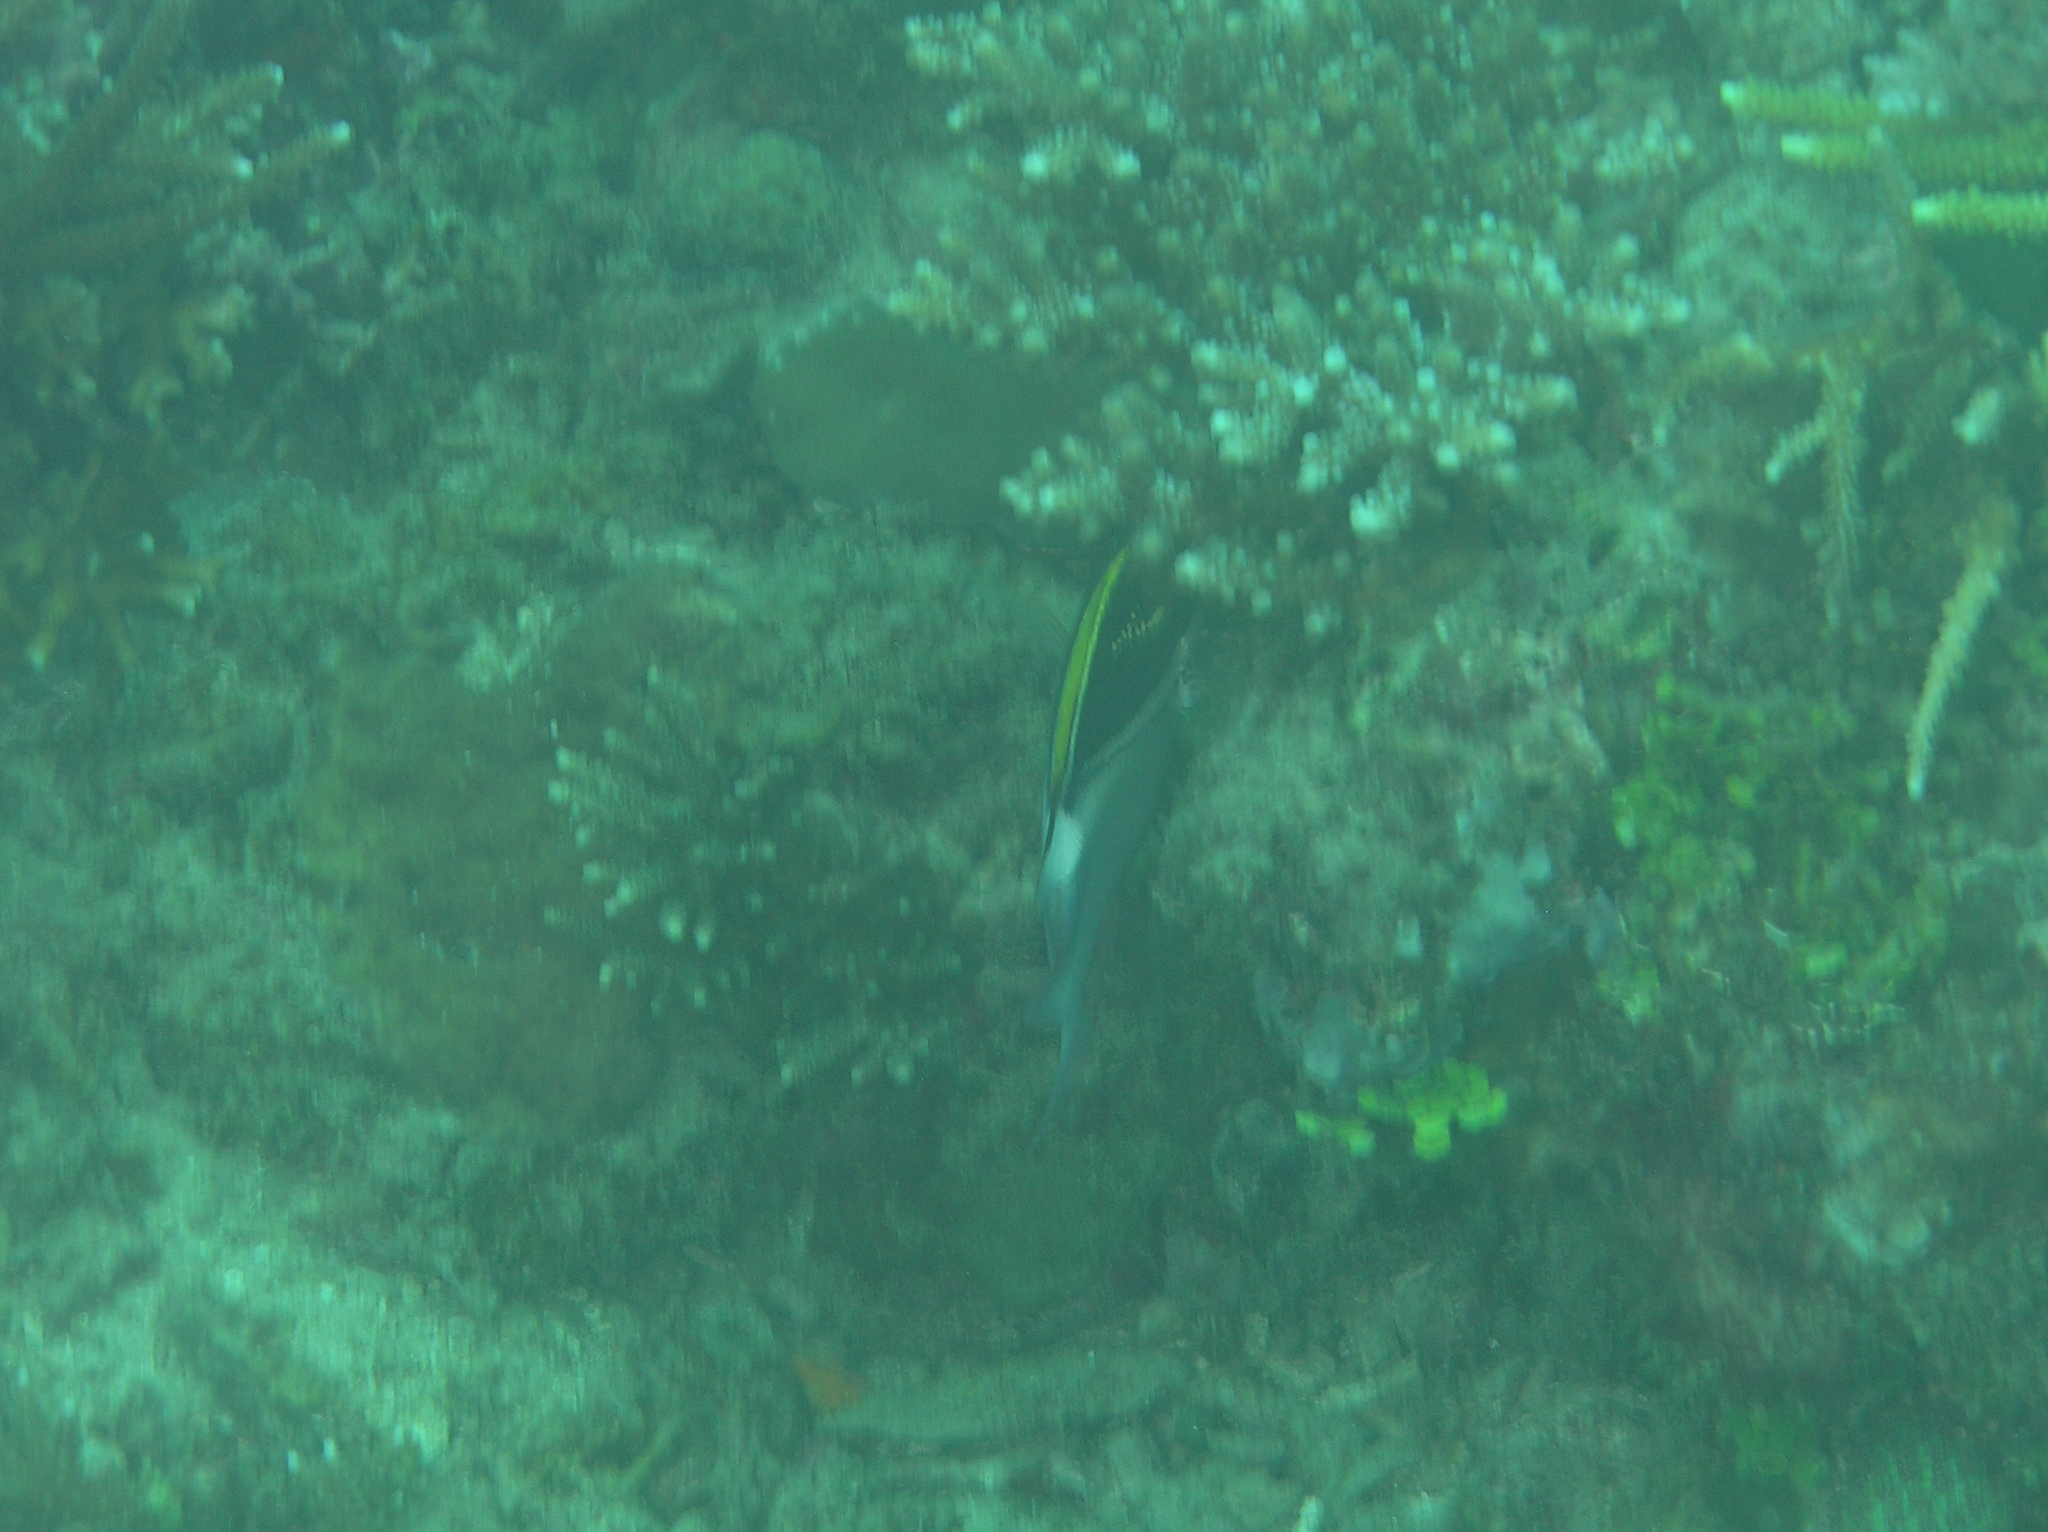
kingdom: Animalia
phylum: Chordata
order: Perciformes
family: Nemipteridae
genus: Scolopsis
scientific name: Scolopsis bilineata
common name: Two-lined monocle bream
